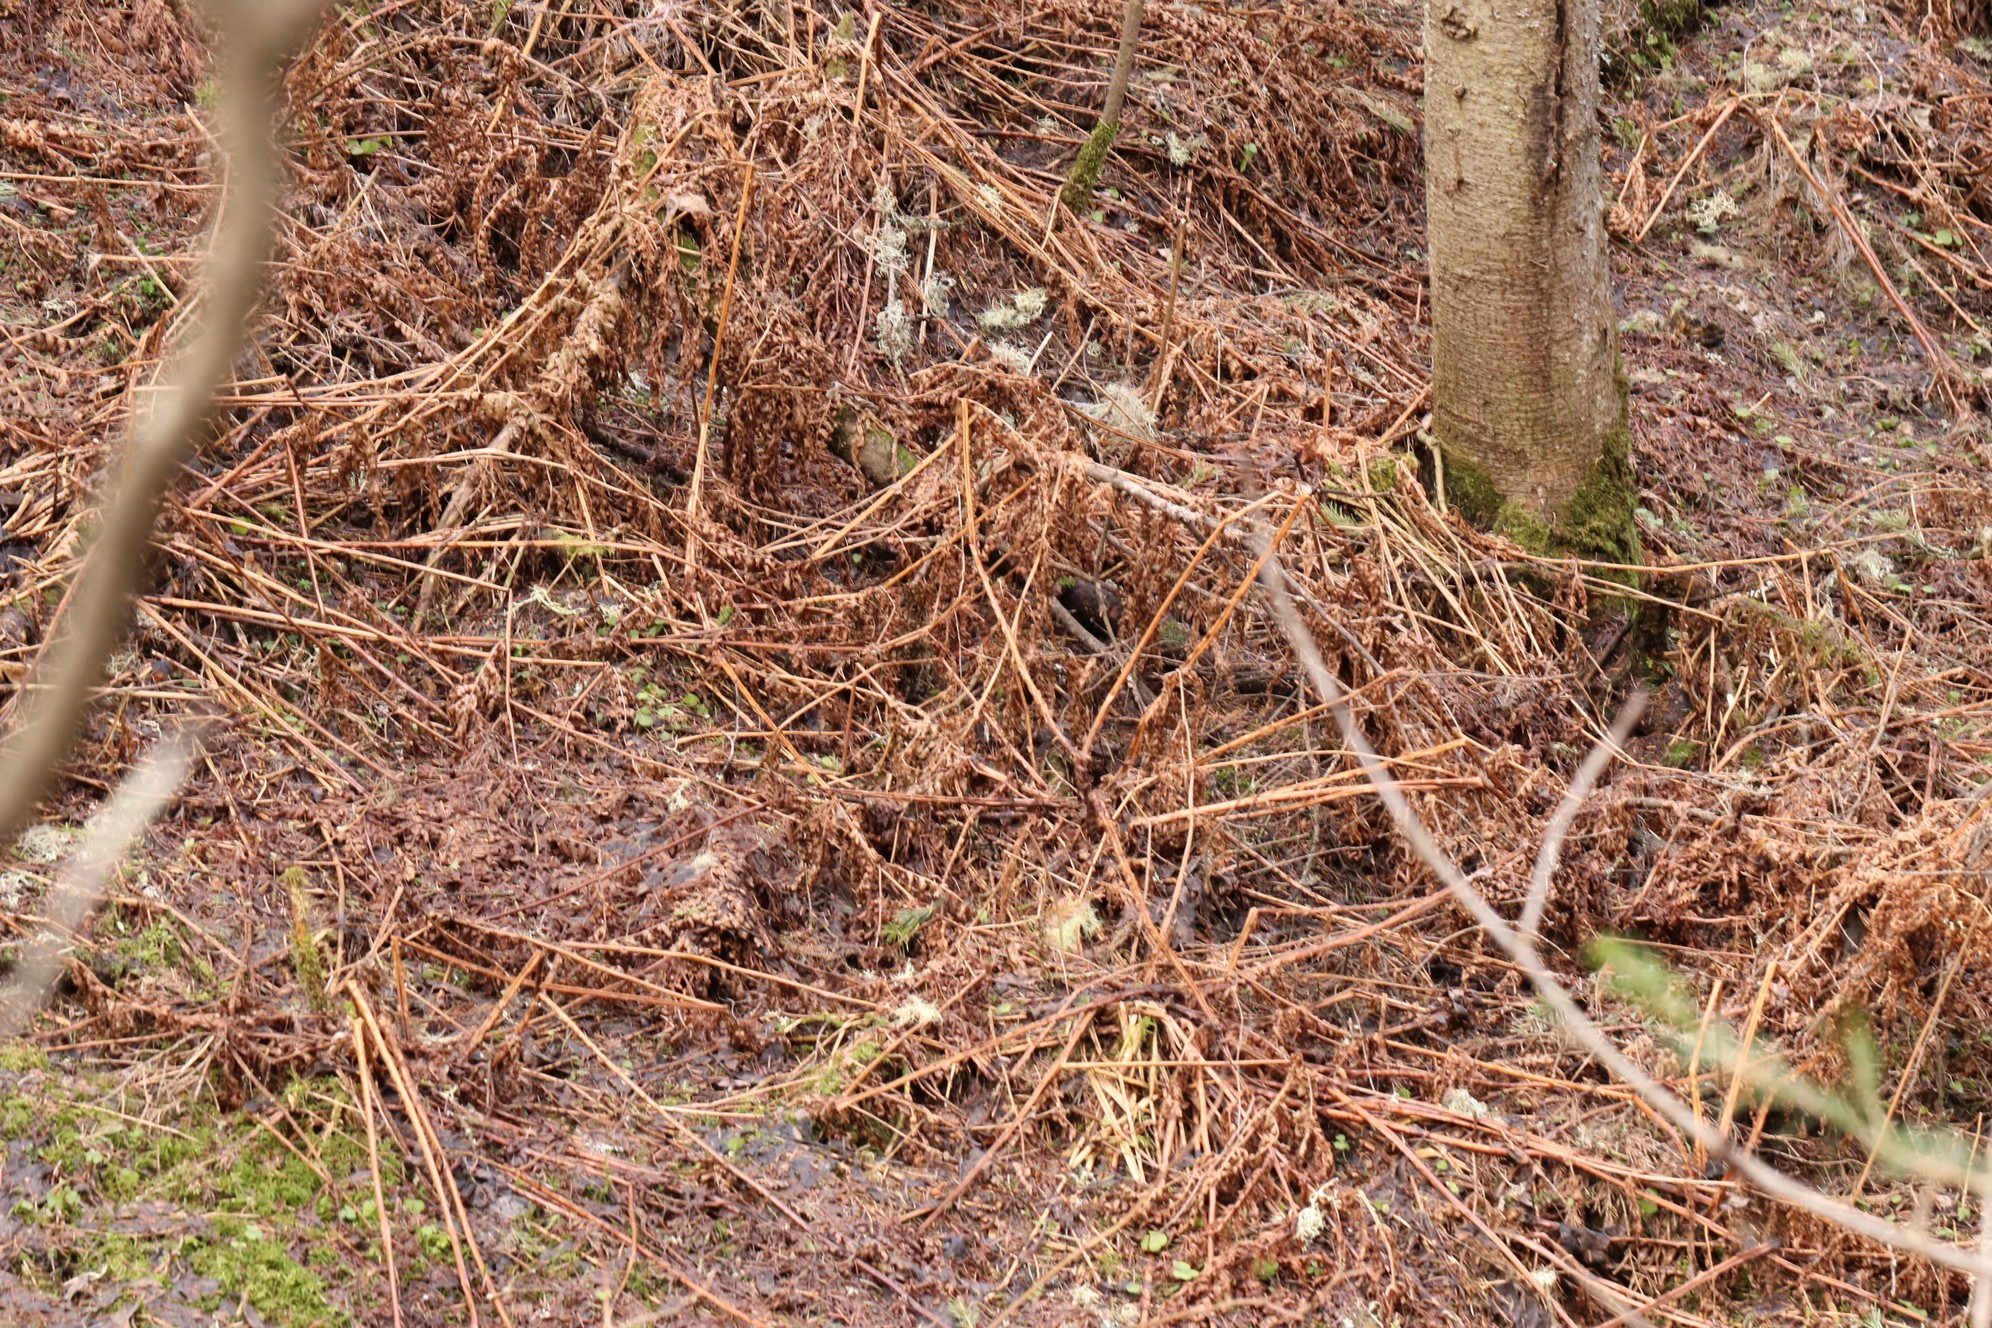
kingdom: Plantae
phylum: Tracheophyta
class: Polypodiopsida
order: Polypodiales
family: Dryopteridaceae
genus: Dryopteris
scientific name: Dryopteris expansa
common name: Northern buckler fern
